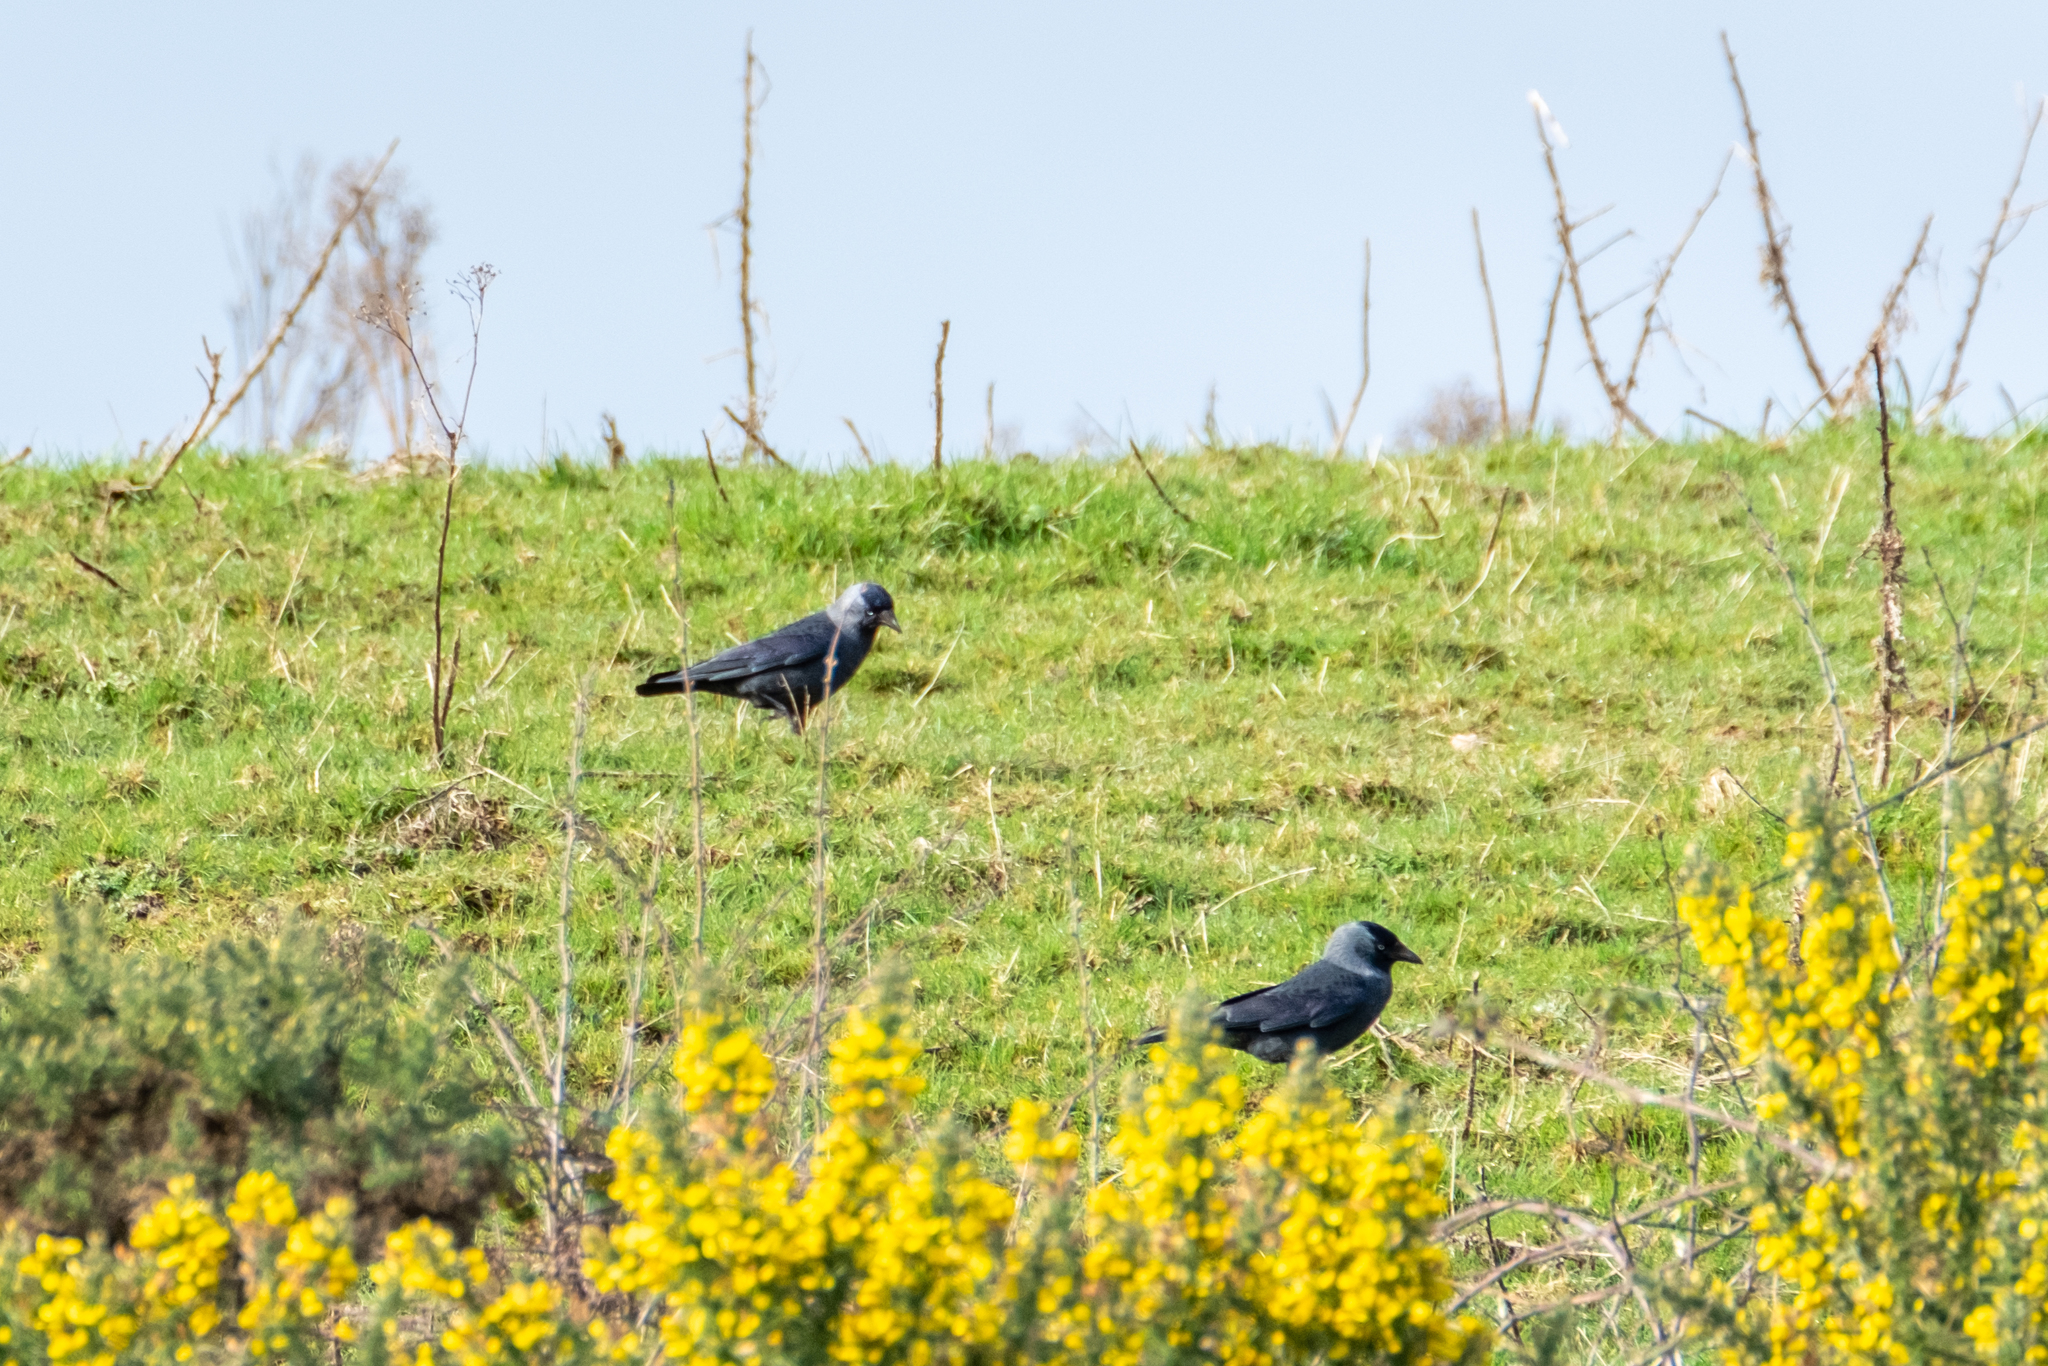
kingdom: Animalia
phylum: Chordata
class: Aves
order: Passeriformes
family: Corvidae
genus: Coloeus
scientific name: Coloeus monedula
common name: Western jackdaw
